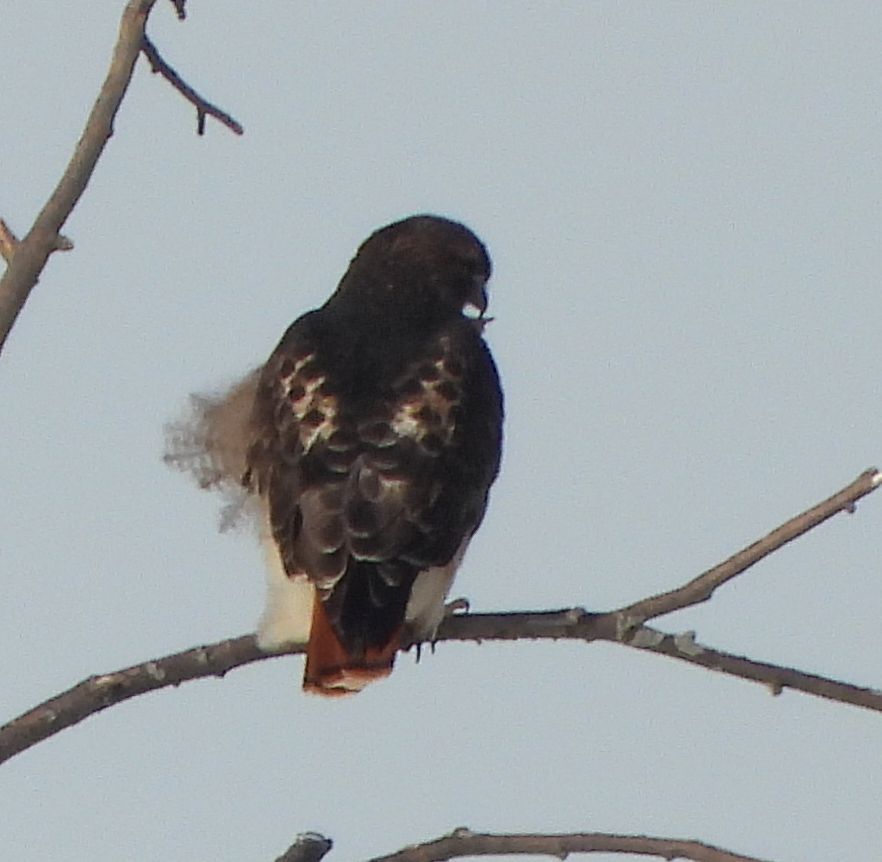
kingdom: Animalia
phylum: Chordata
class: Aves
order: Accipitriformes
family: Accipitridae
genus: Buteo
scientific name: Buteo jamaicensis
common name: Red-tailed hawk
